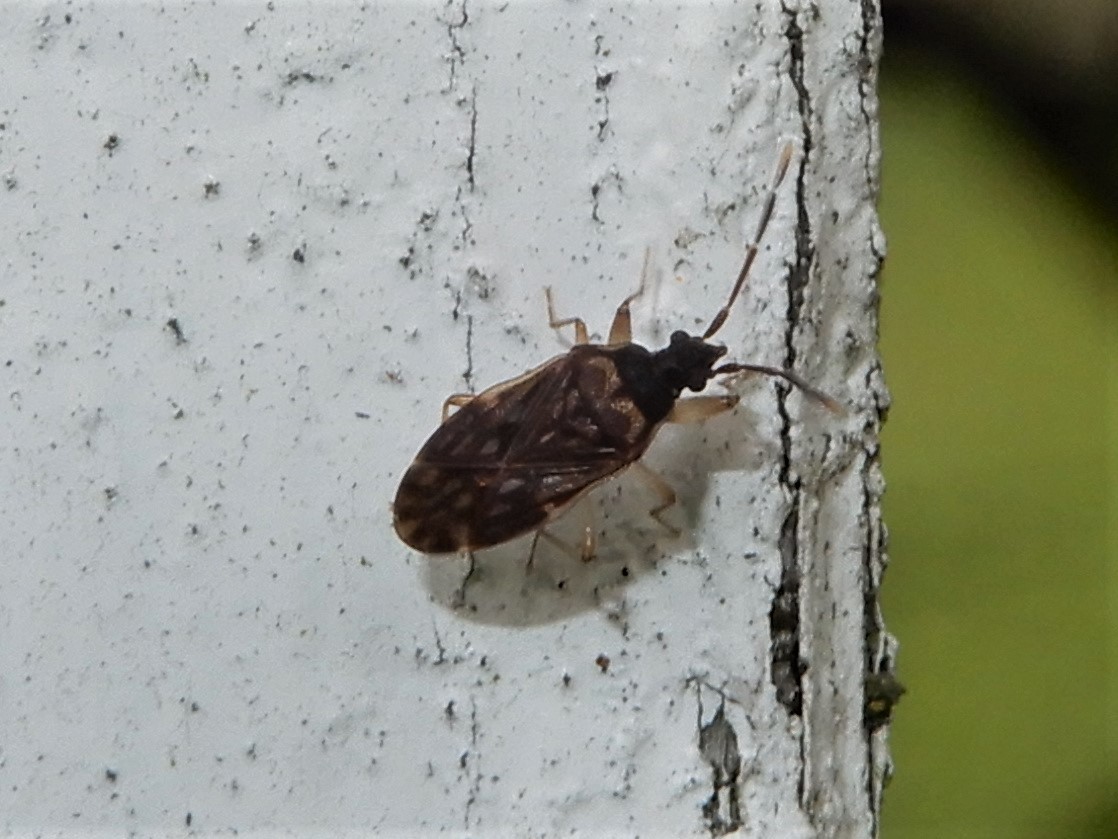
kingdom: Animalia
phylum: Arthropoda
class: Insecta
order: Hemiptera
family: Rhyparochromidae
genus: Grossander
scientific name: Grossander major
